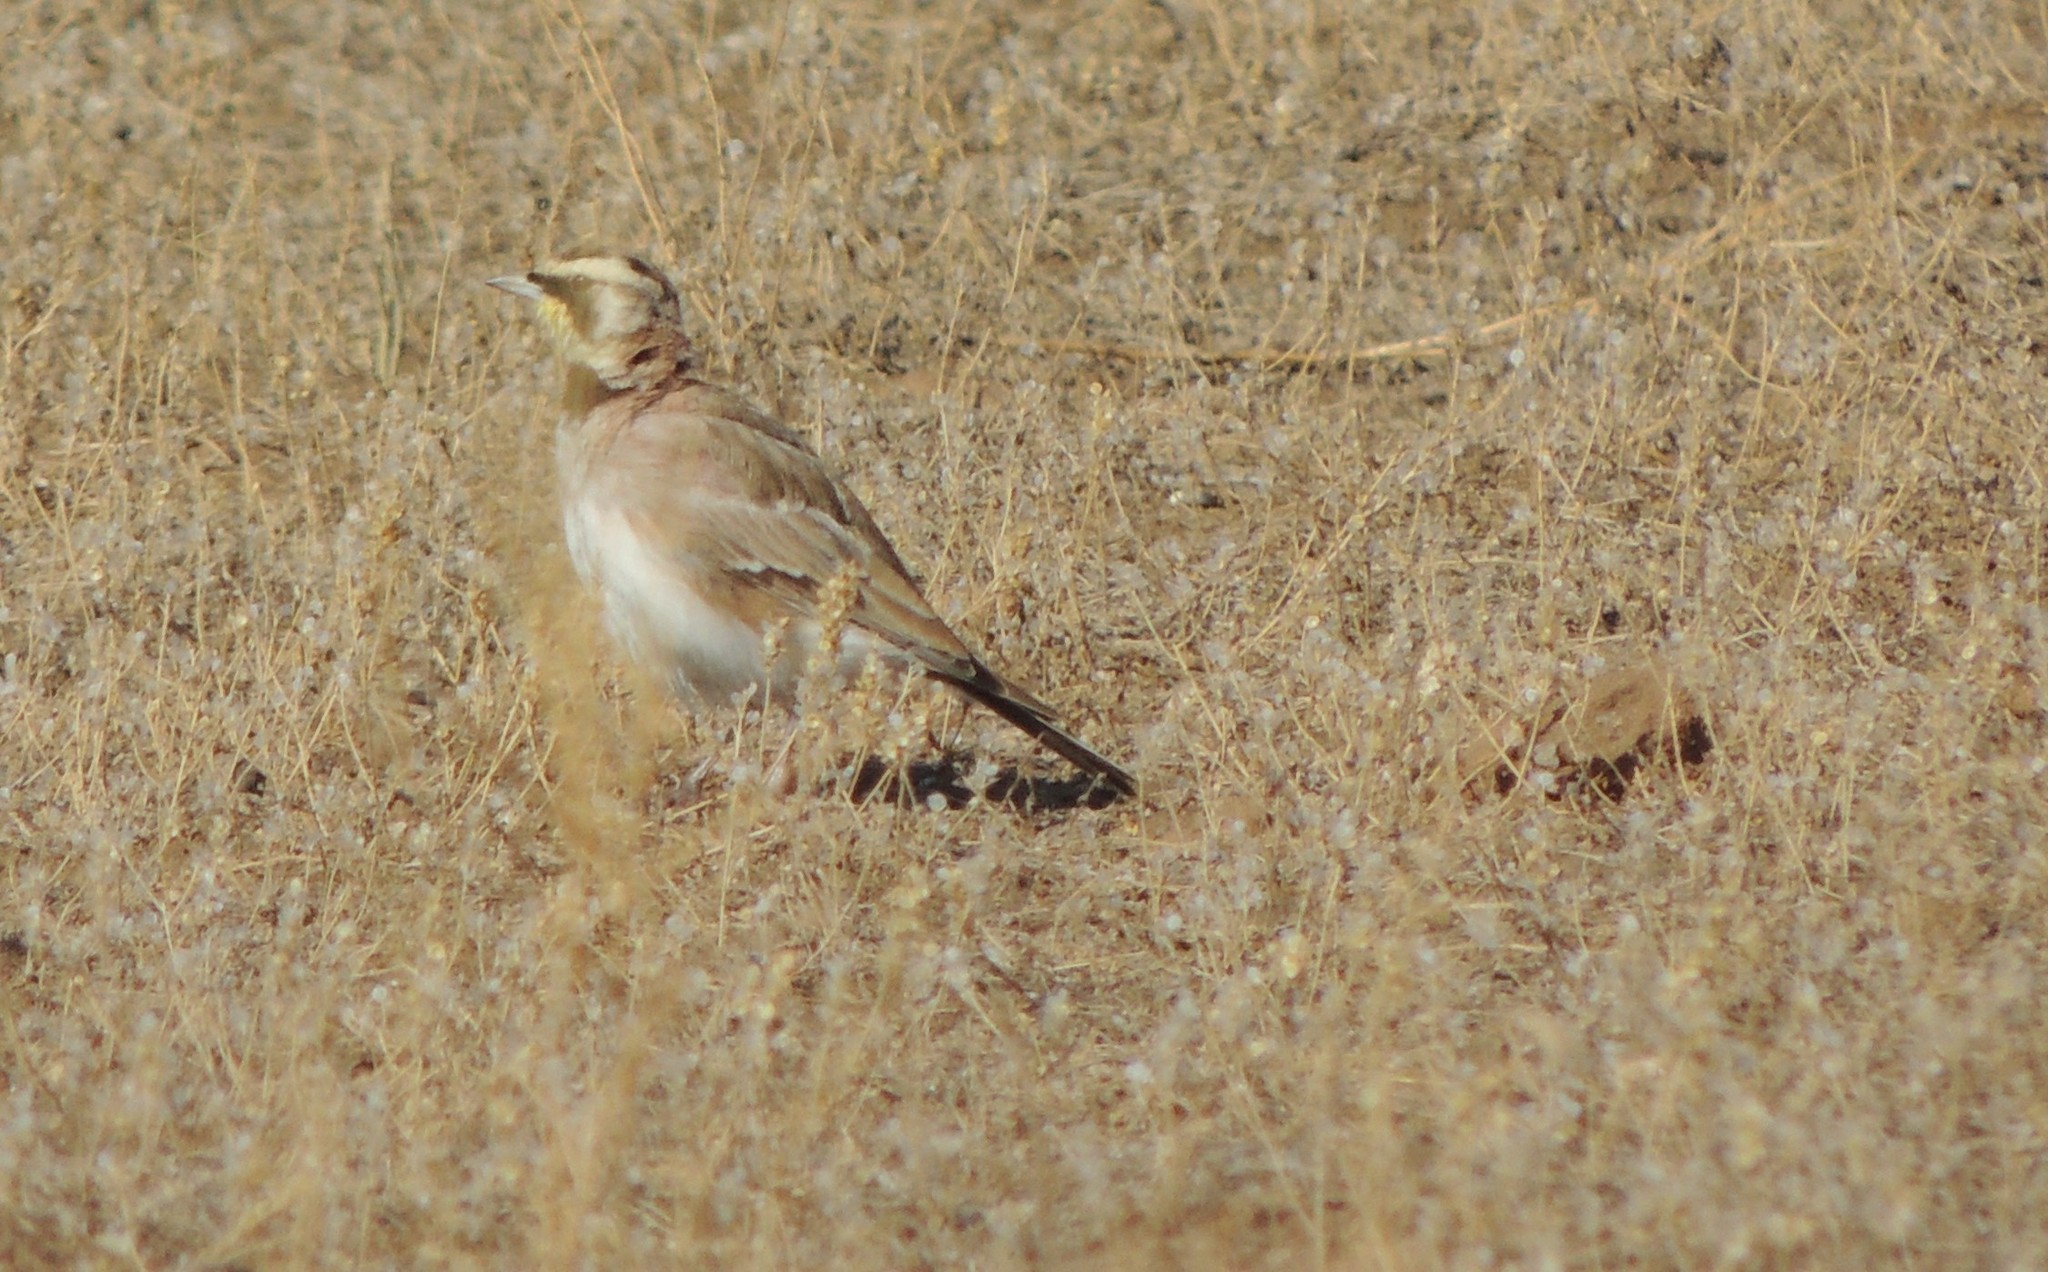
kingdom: Animalia
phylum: Chordata
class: Aves
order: Passeriformes
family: Alaudidae
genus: Eremophila
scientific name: Eremophila alpestris
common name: Horned lark
